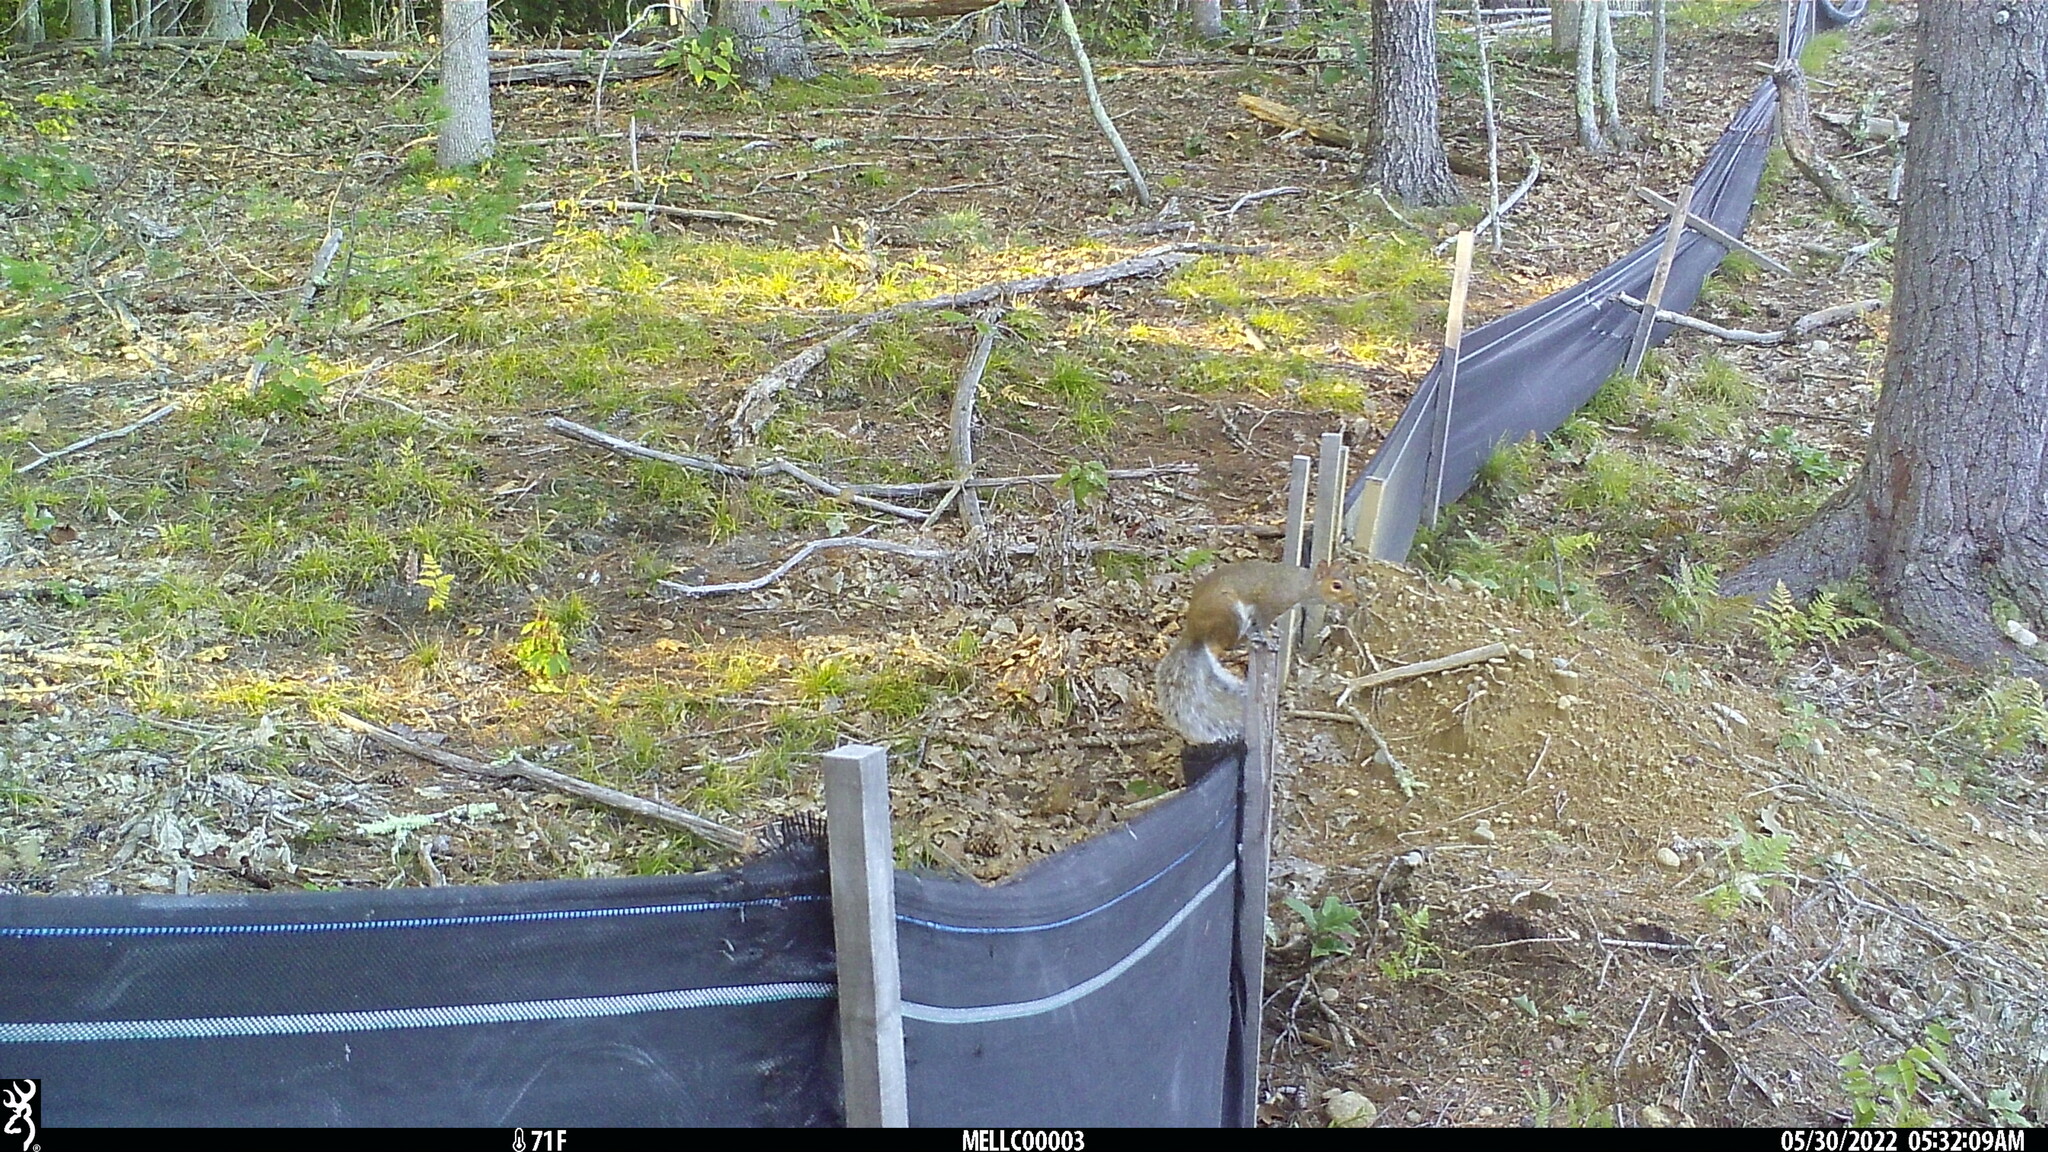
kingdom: Animalia
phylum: Chordata
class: Mammalia
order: Rodentia
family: Sciuridae
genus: Sciurus
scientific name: Sciurus carolinensis
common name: Eastern gray squirrel
